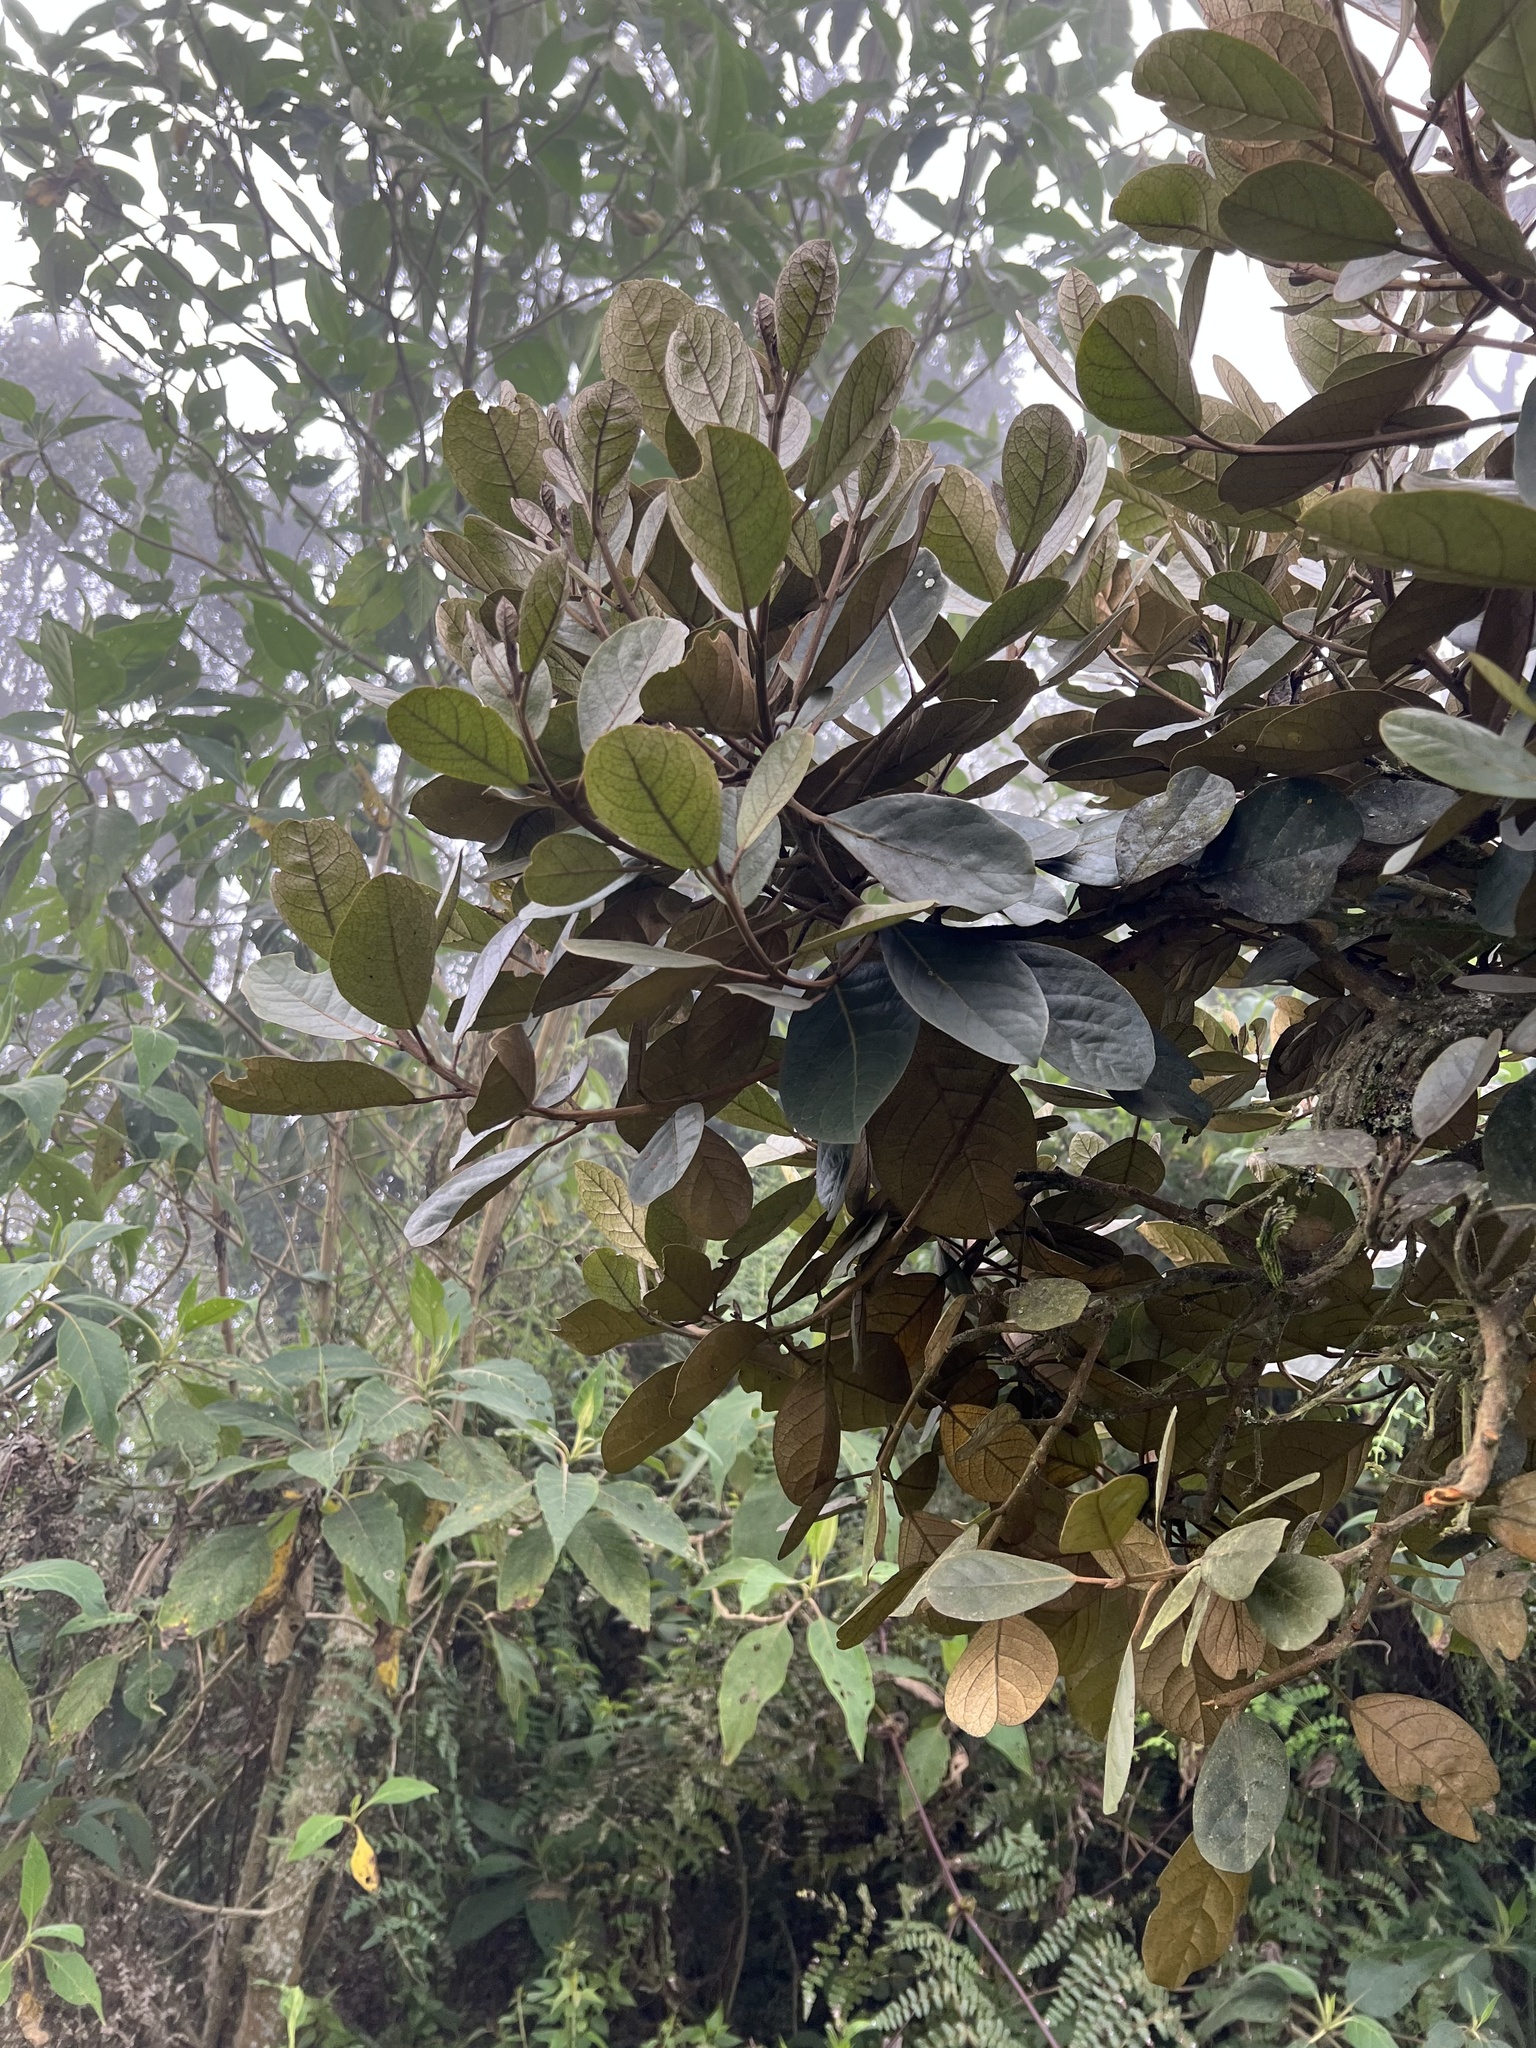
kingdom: Plantae
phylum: Tracheophyta
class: Magnoliopsida
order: Malpighiales
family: Phyllanthaceae
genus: Hieronyma
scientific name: Hieronyma rufa
